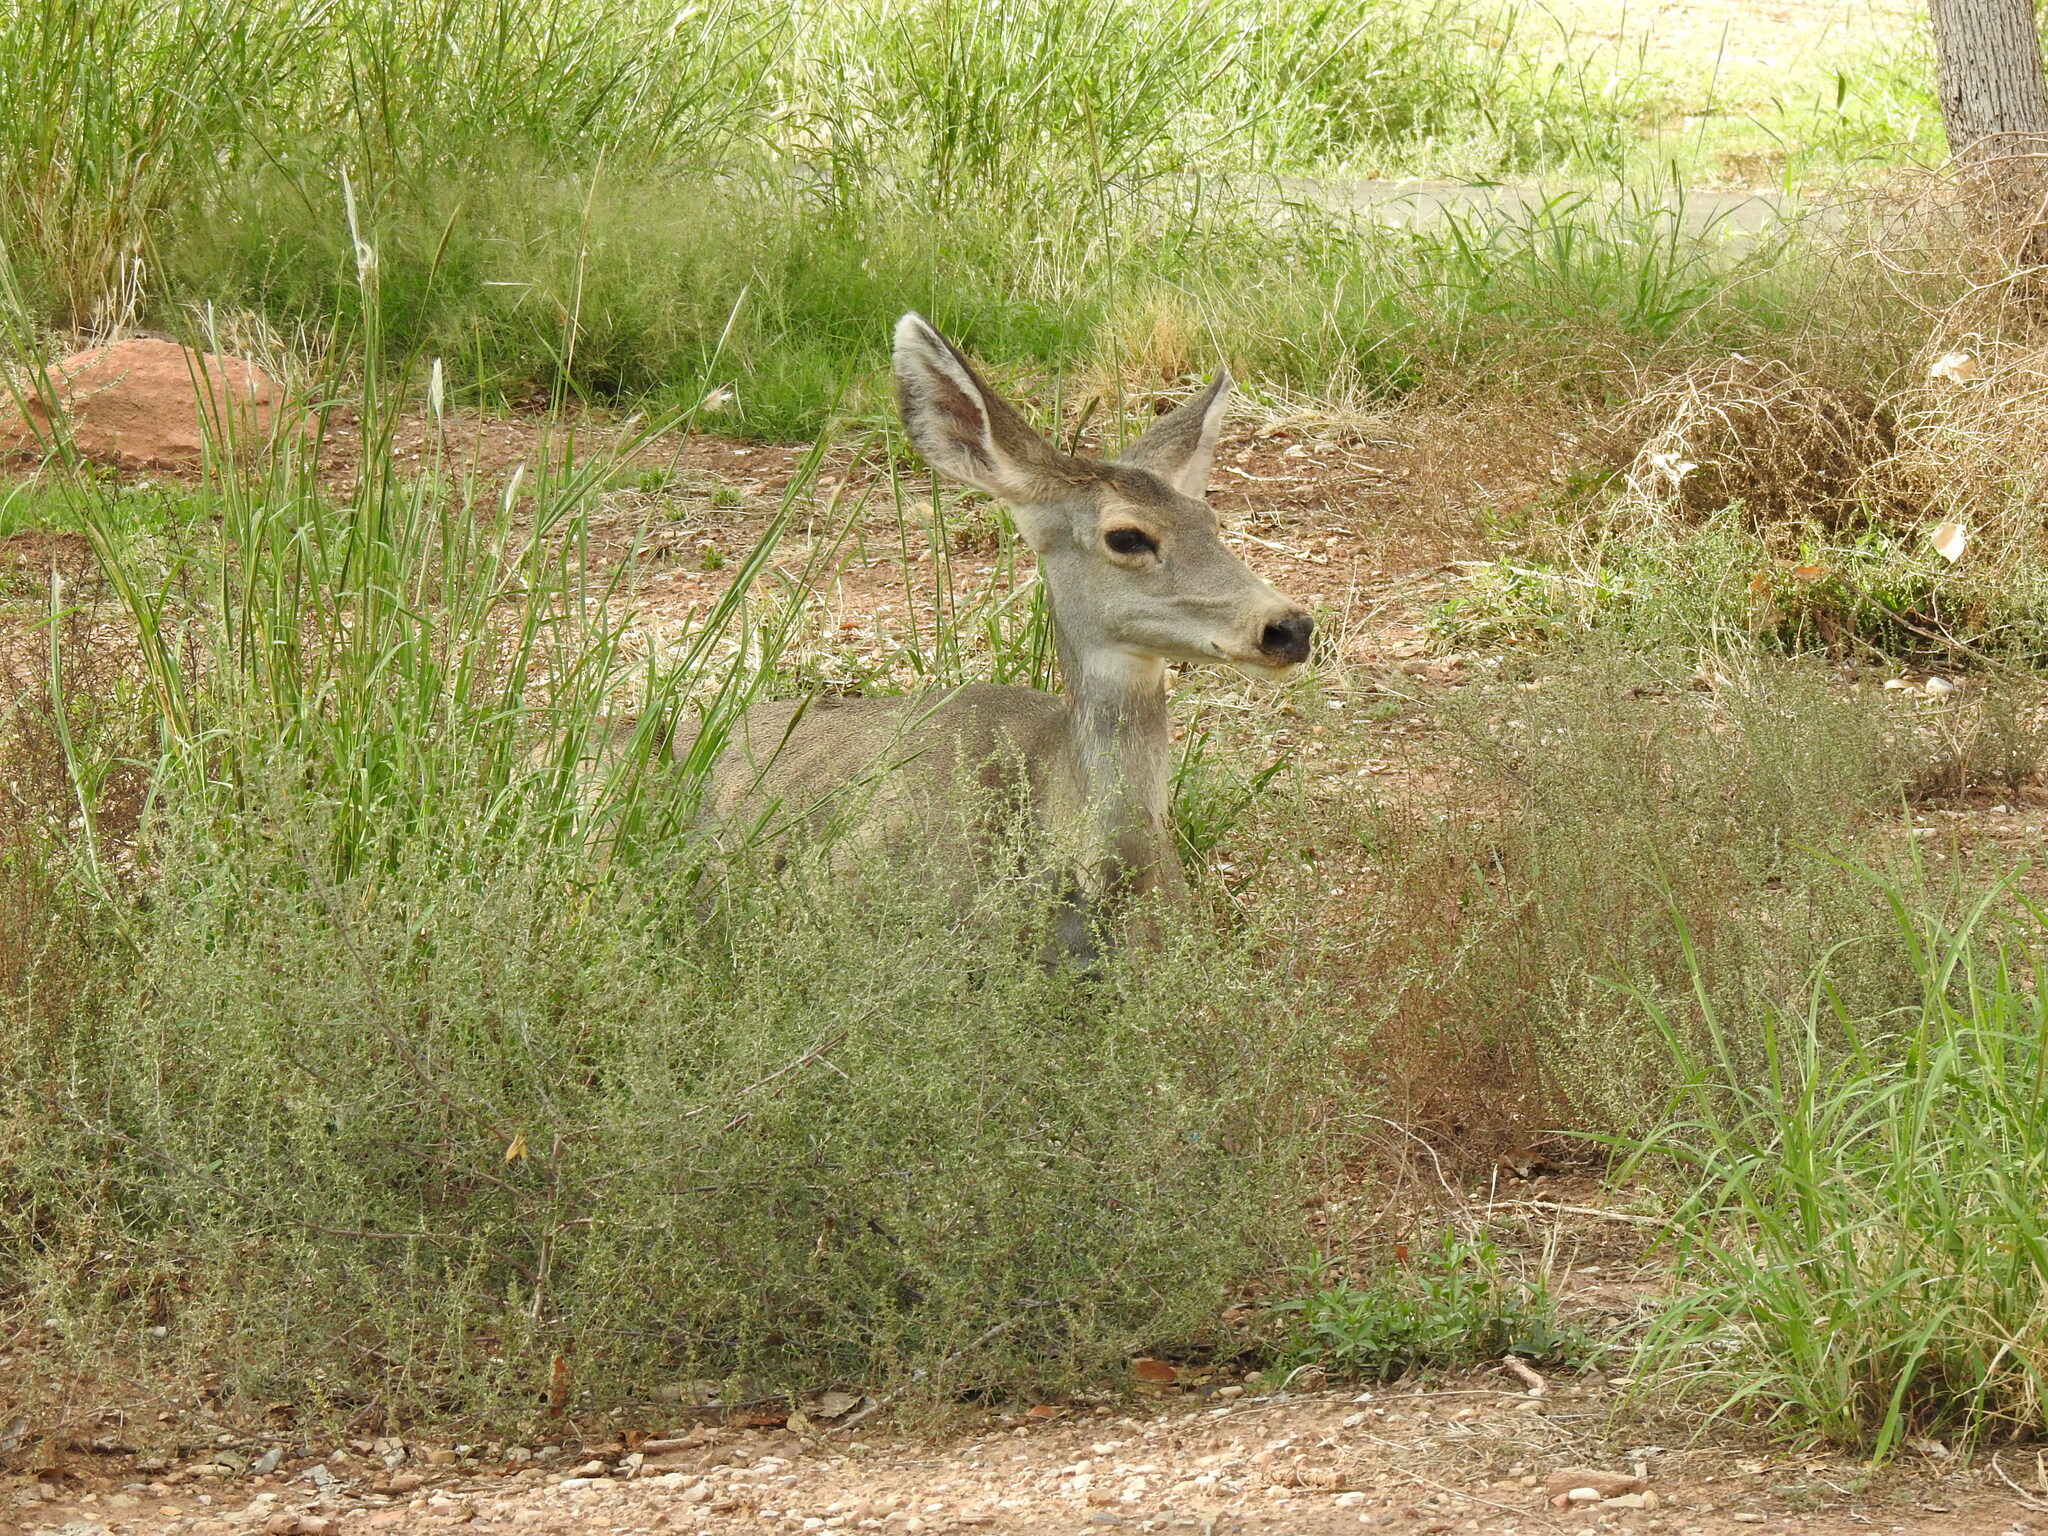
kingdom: Animalia
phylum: Chordata
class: Mammalia
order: Artiodactyla
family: Cervidae
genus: Odocoileus
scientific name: Odocoileus hemionus
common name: Mule deer
